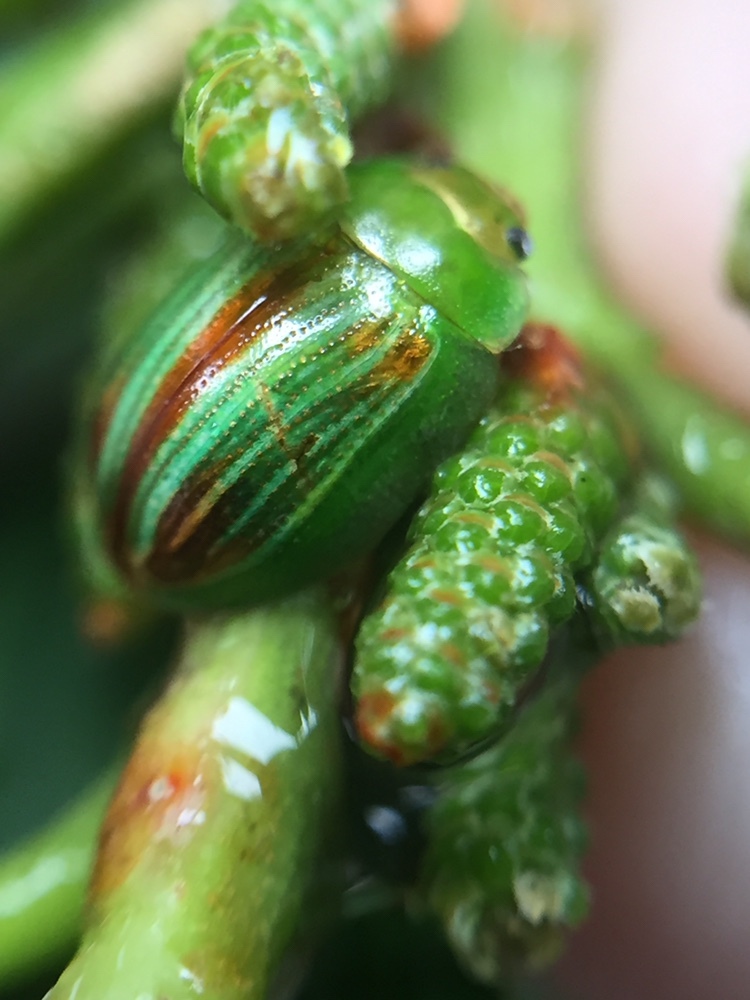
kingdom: Animalia
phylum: Arthropoda
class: Insecta
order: Coleoptera
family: Chrysomelidae
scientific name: Chrysomelidae
